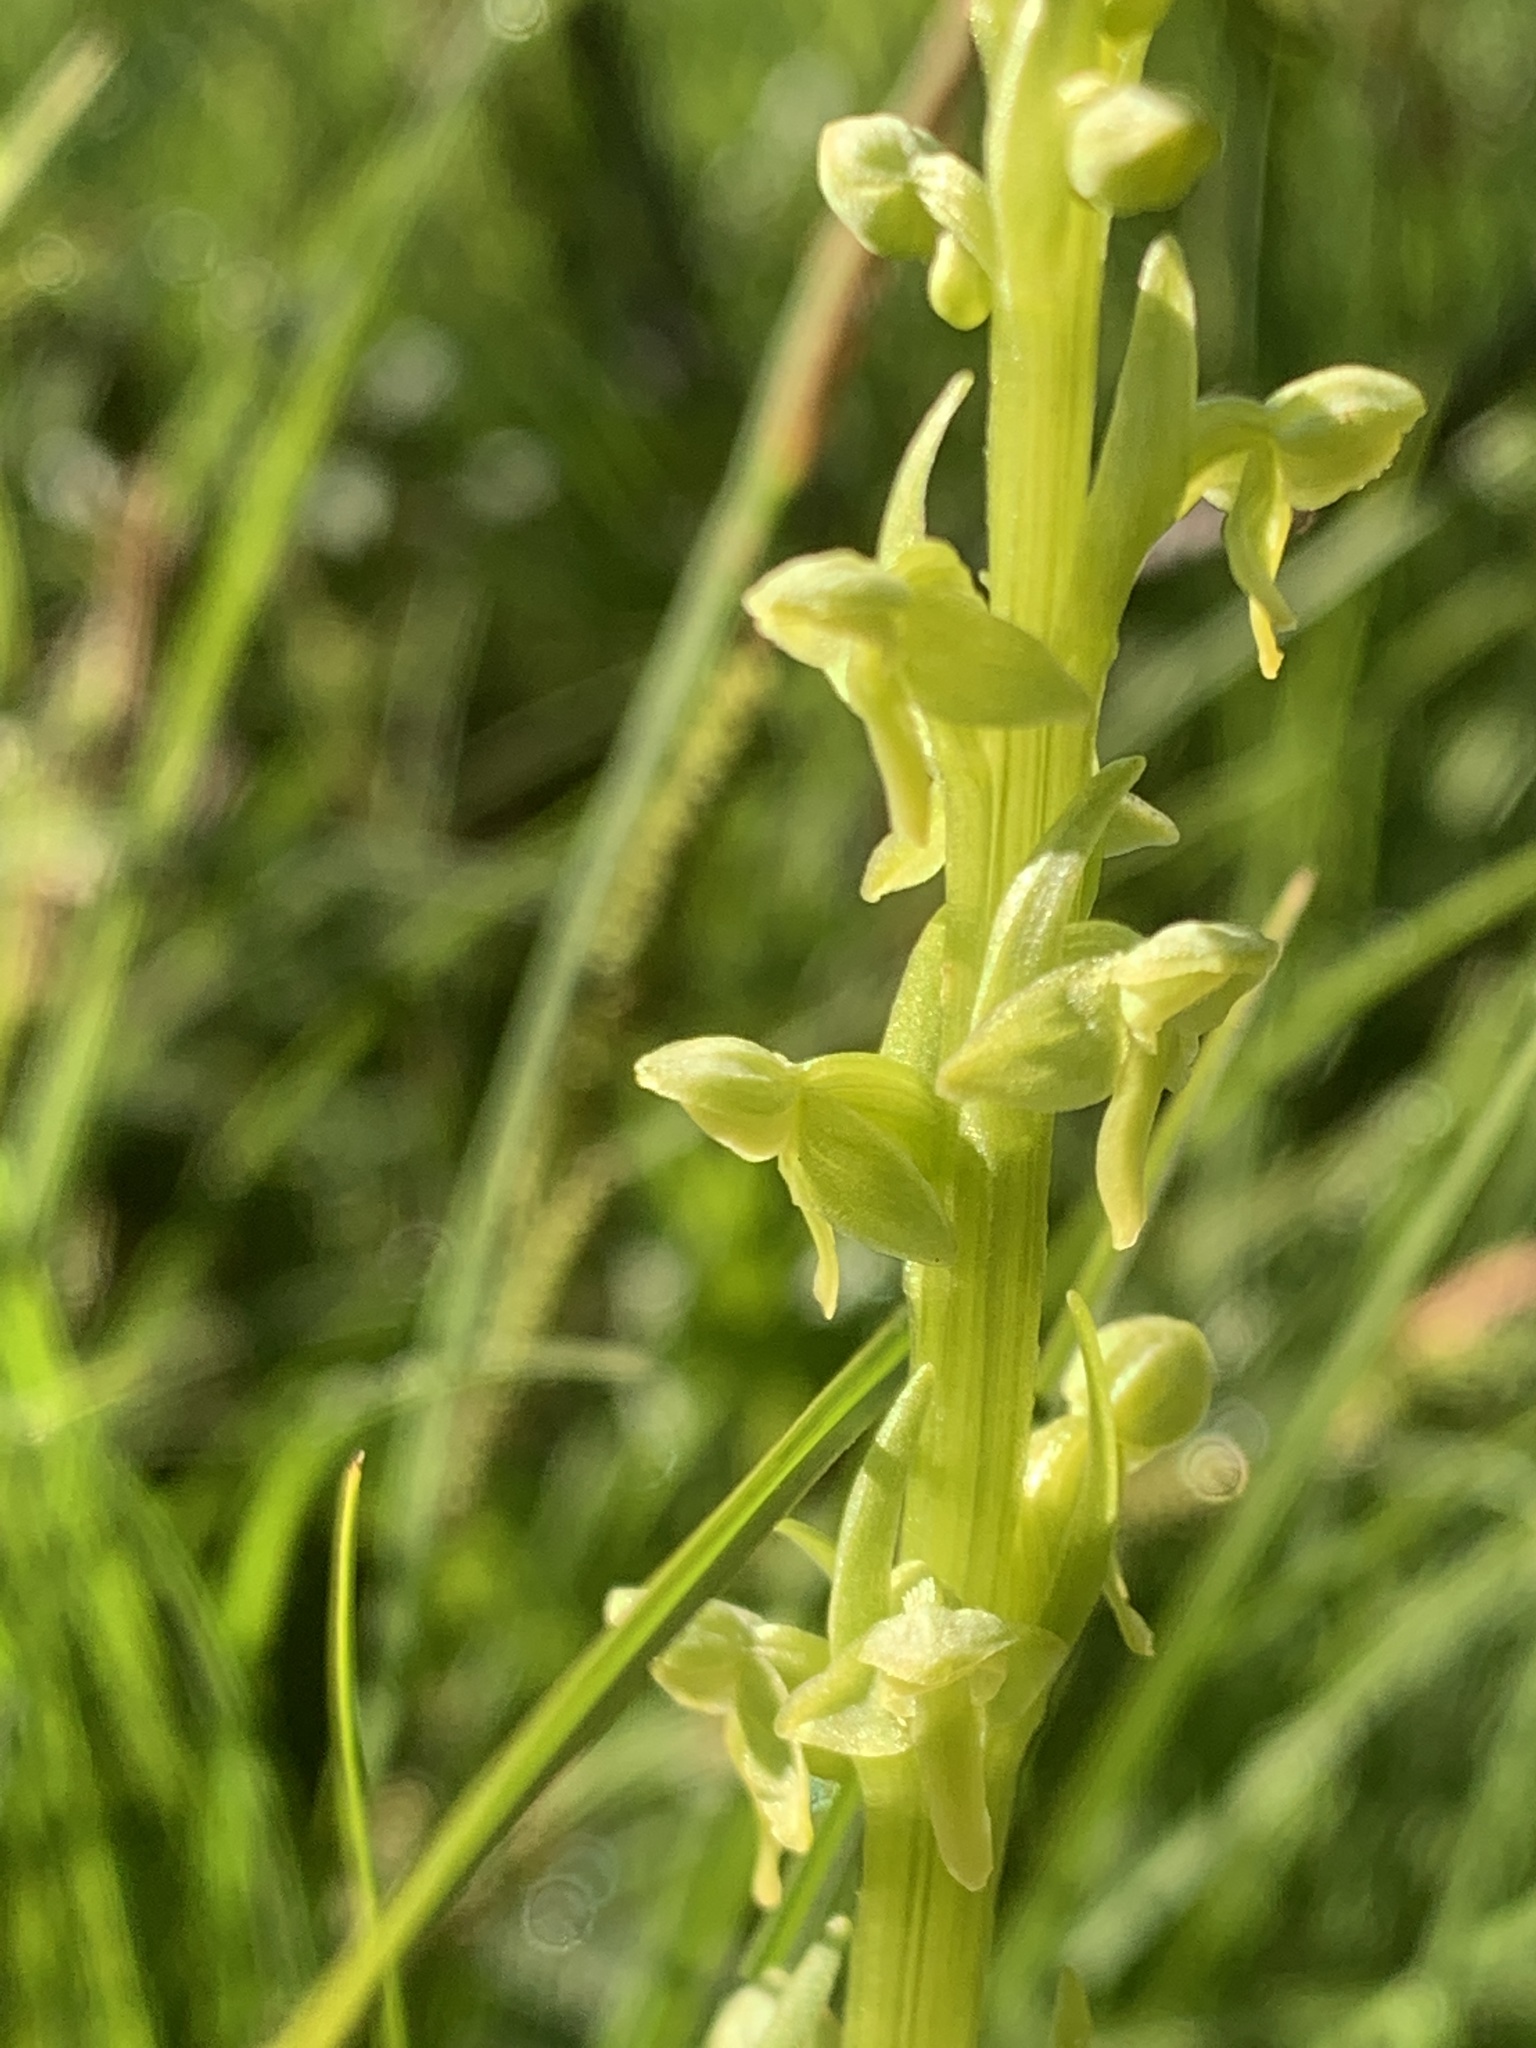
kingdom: Plantae
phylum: Tracheophyta
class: Liliopsida
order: Asparagales
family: Orchidaceae
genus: Platanthera
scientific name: Platanthera stricta
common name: Slender bog orchid
